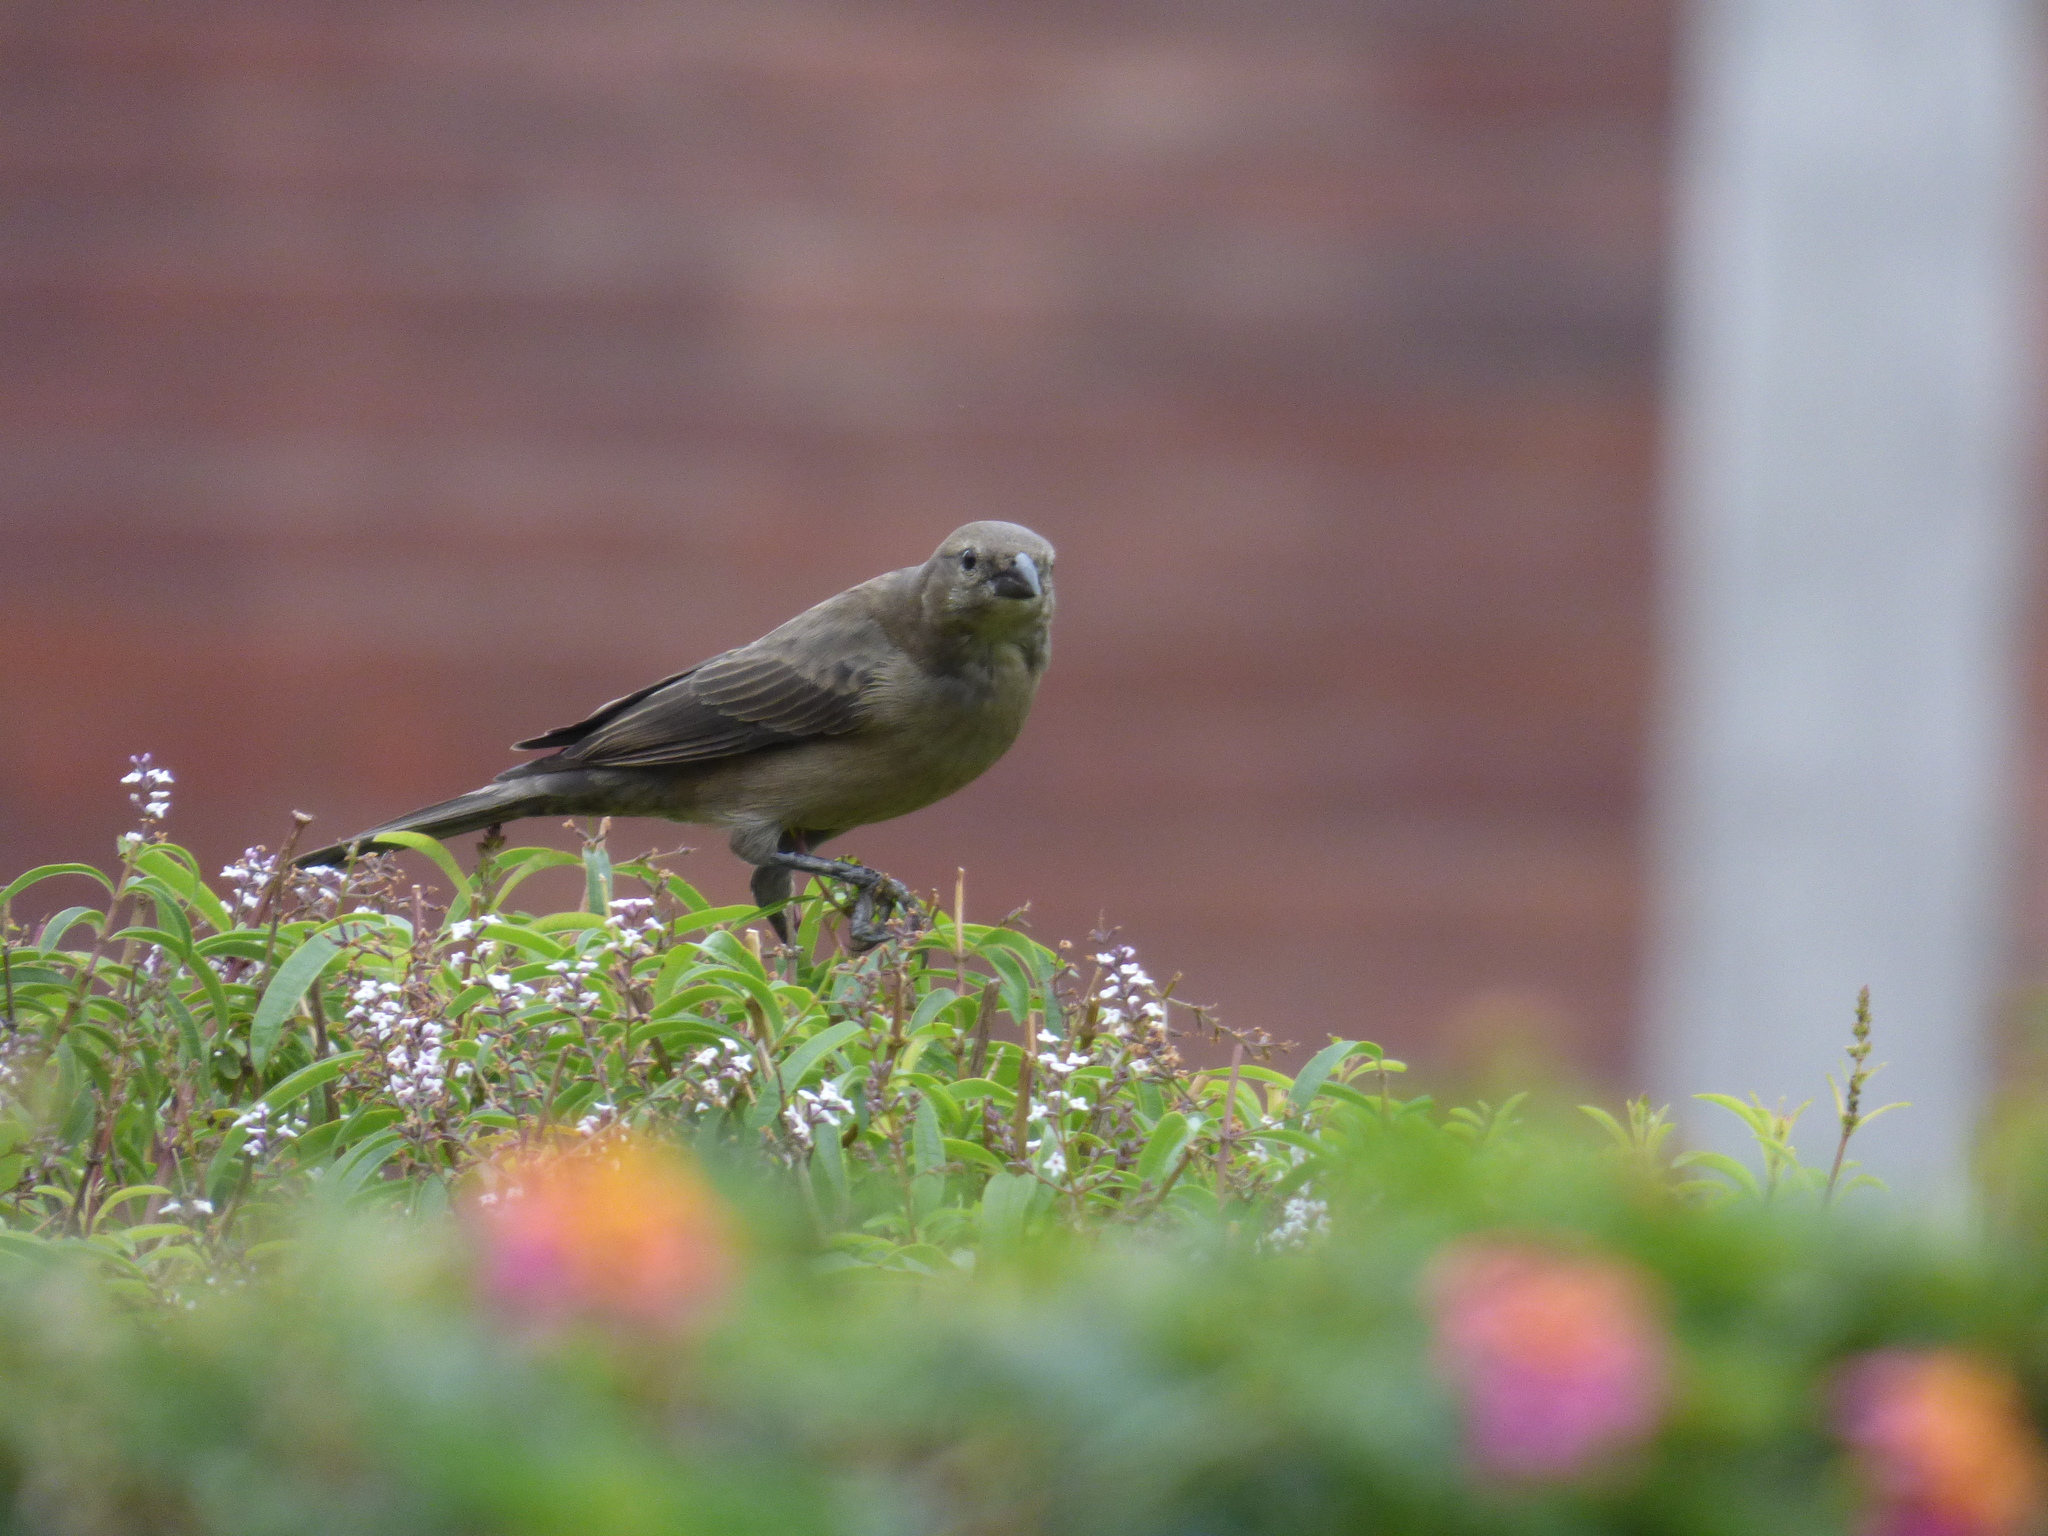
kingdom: Animalia
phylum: Chordata
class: Aves
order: Passeriformes
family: Icteridae
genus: Molothrus
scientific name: Molothrus bonariensis
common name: Shiny cowbird
